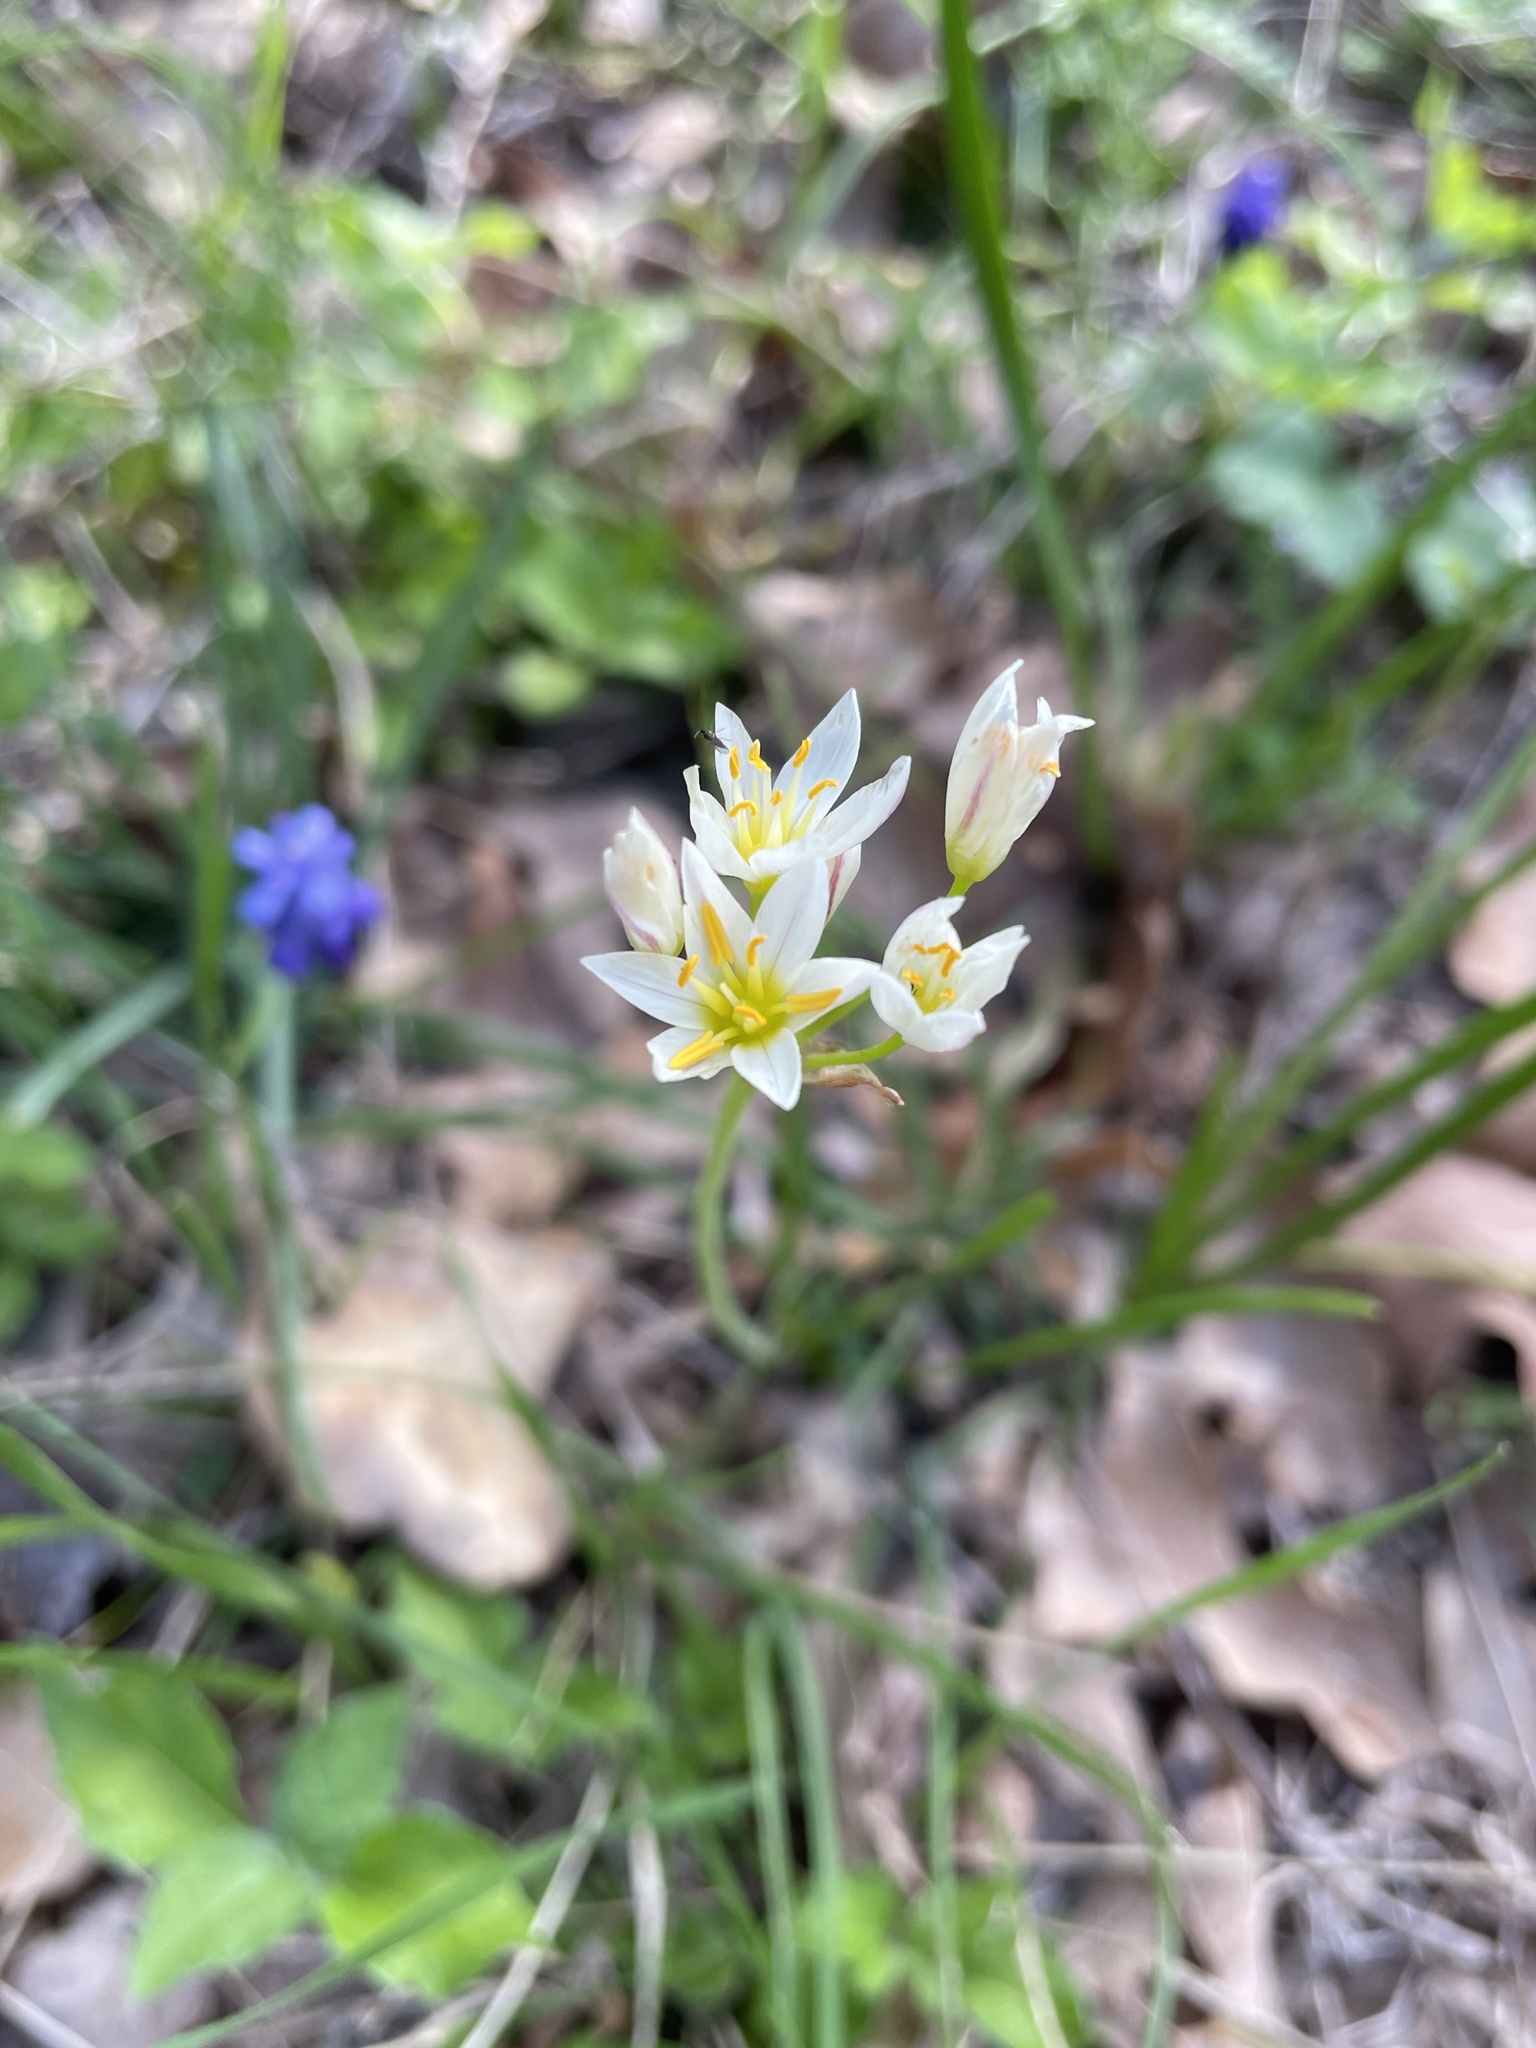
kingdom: Plantae
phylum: Tracheophyta
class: Liliopsida
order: Asparagales
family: Amaryllidaceae
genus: Nothoscordum
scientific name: Nothoscordum bivalve
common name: Crow-poison
